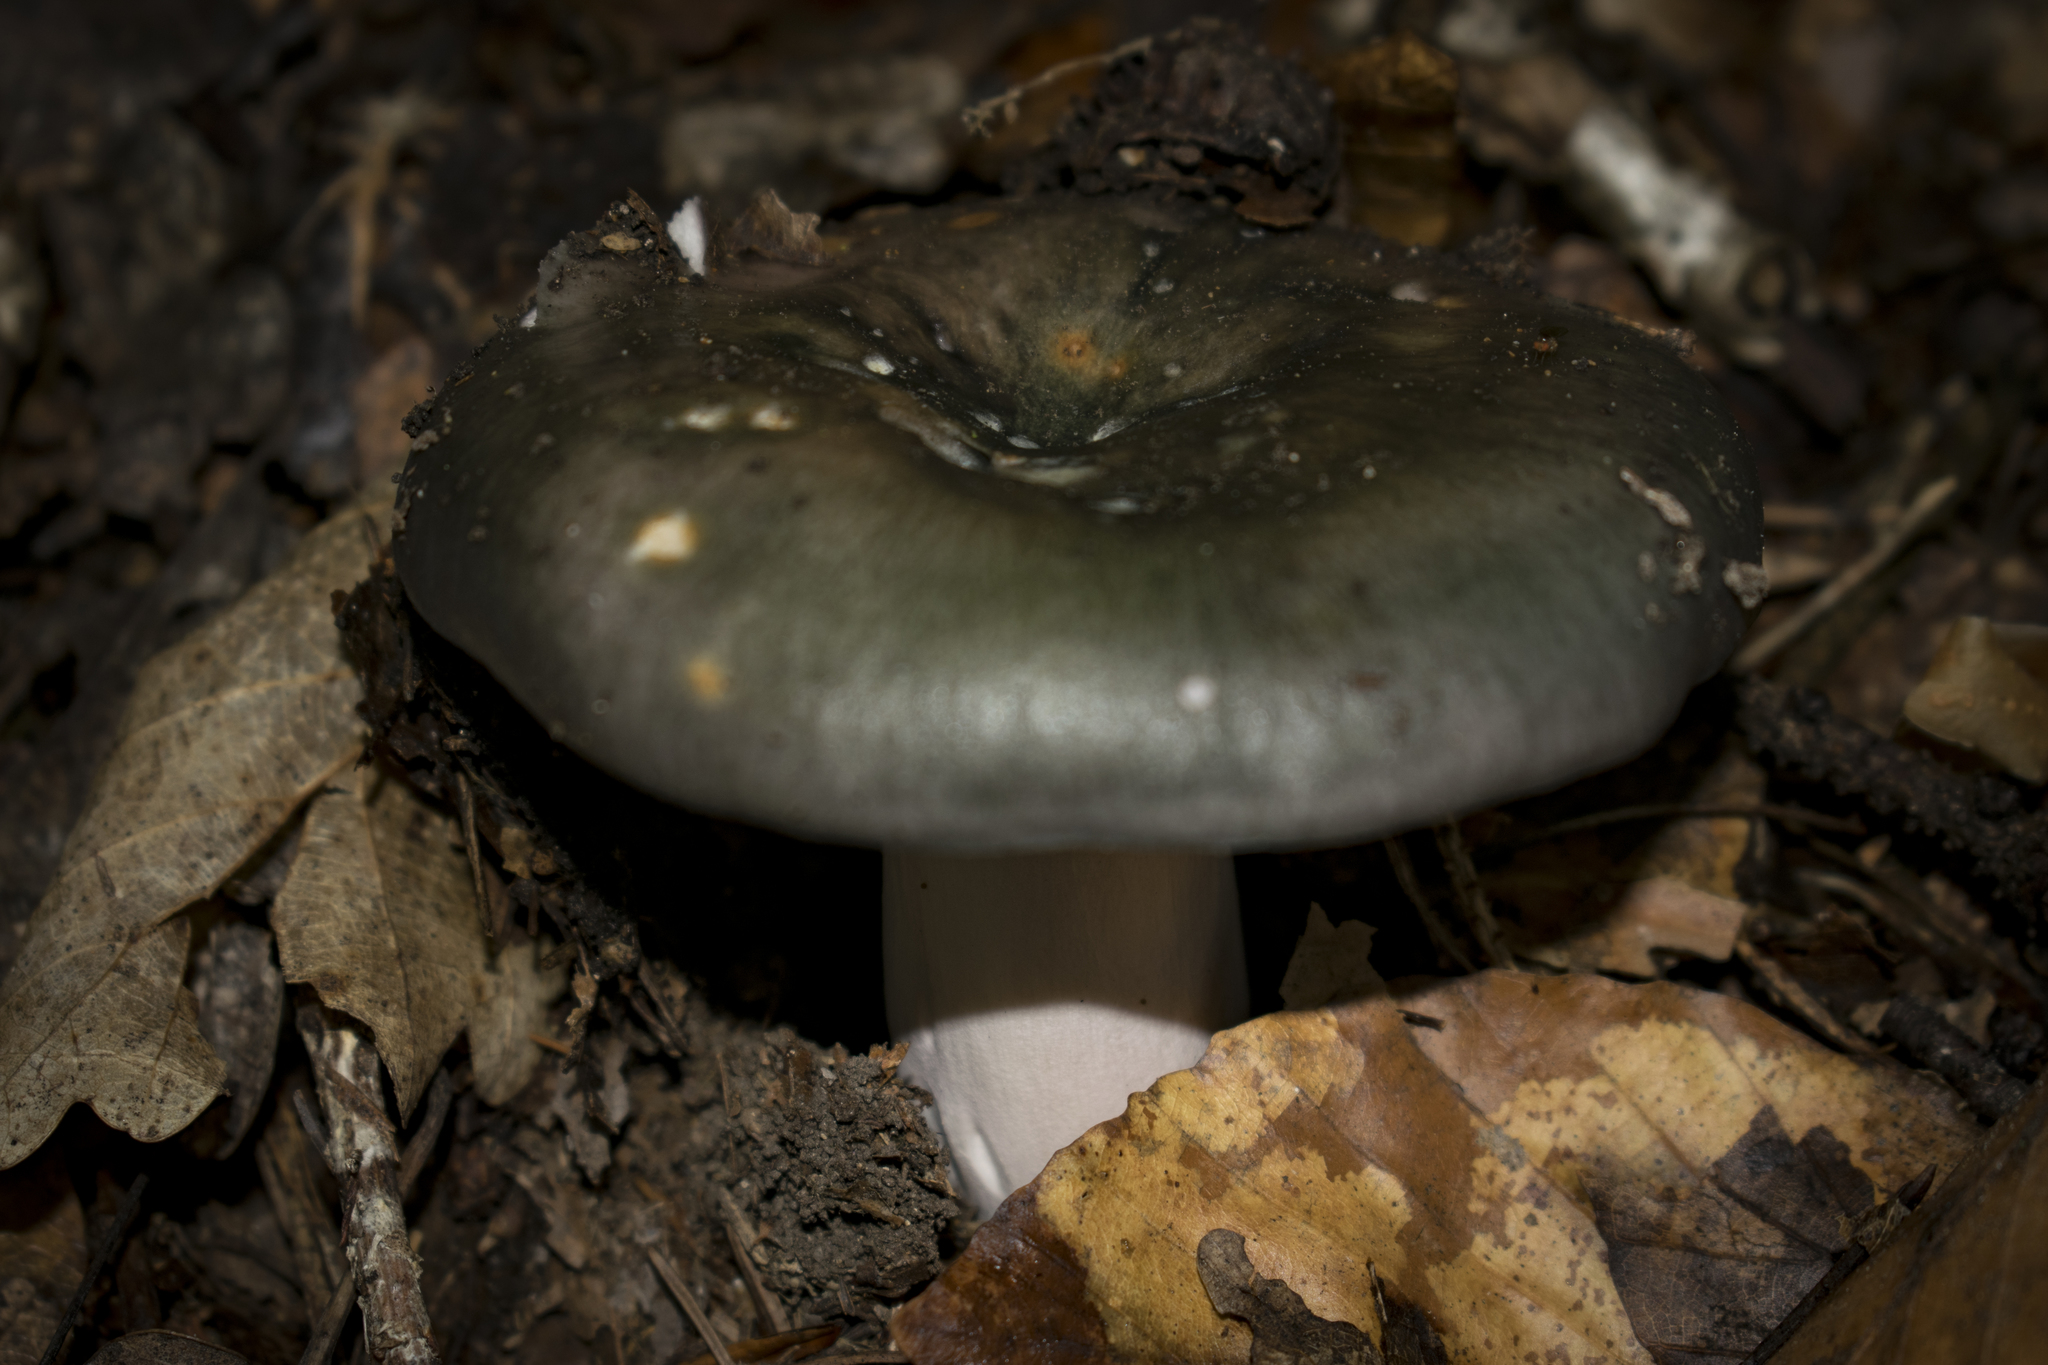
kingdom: Fungi
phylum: Basidiomycota
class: Agaricomycetes
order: Russulales
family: Russulaceae
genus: Russula
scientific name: Russula cyanoxantha
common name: Charcoal burner
